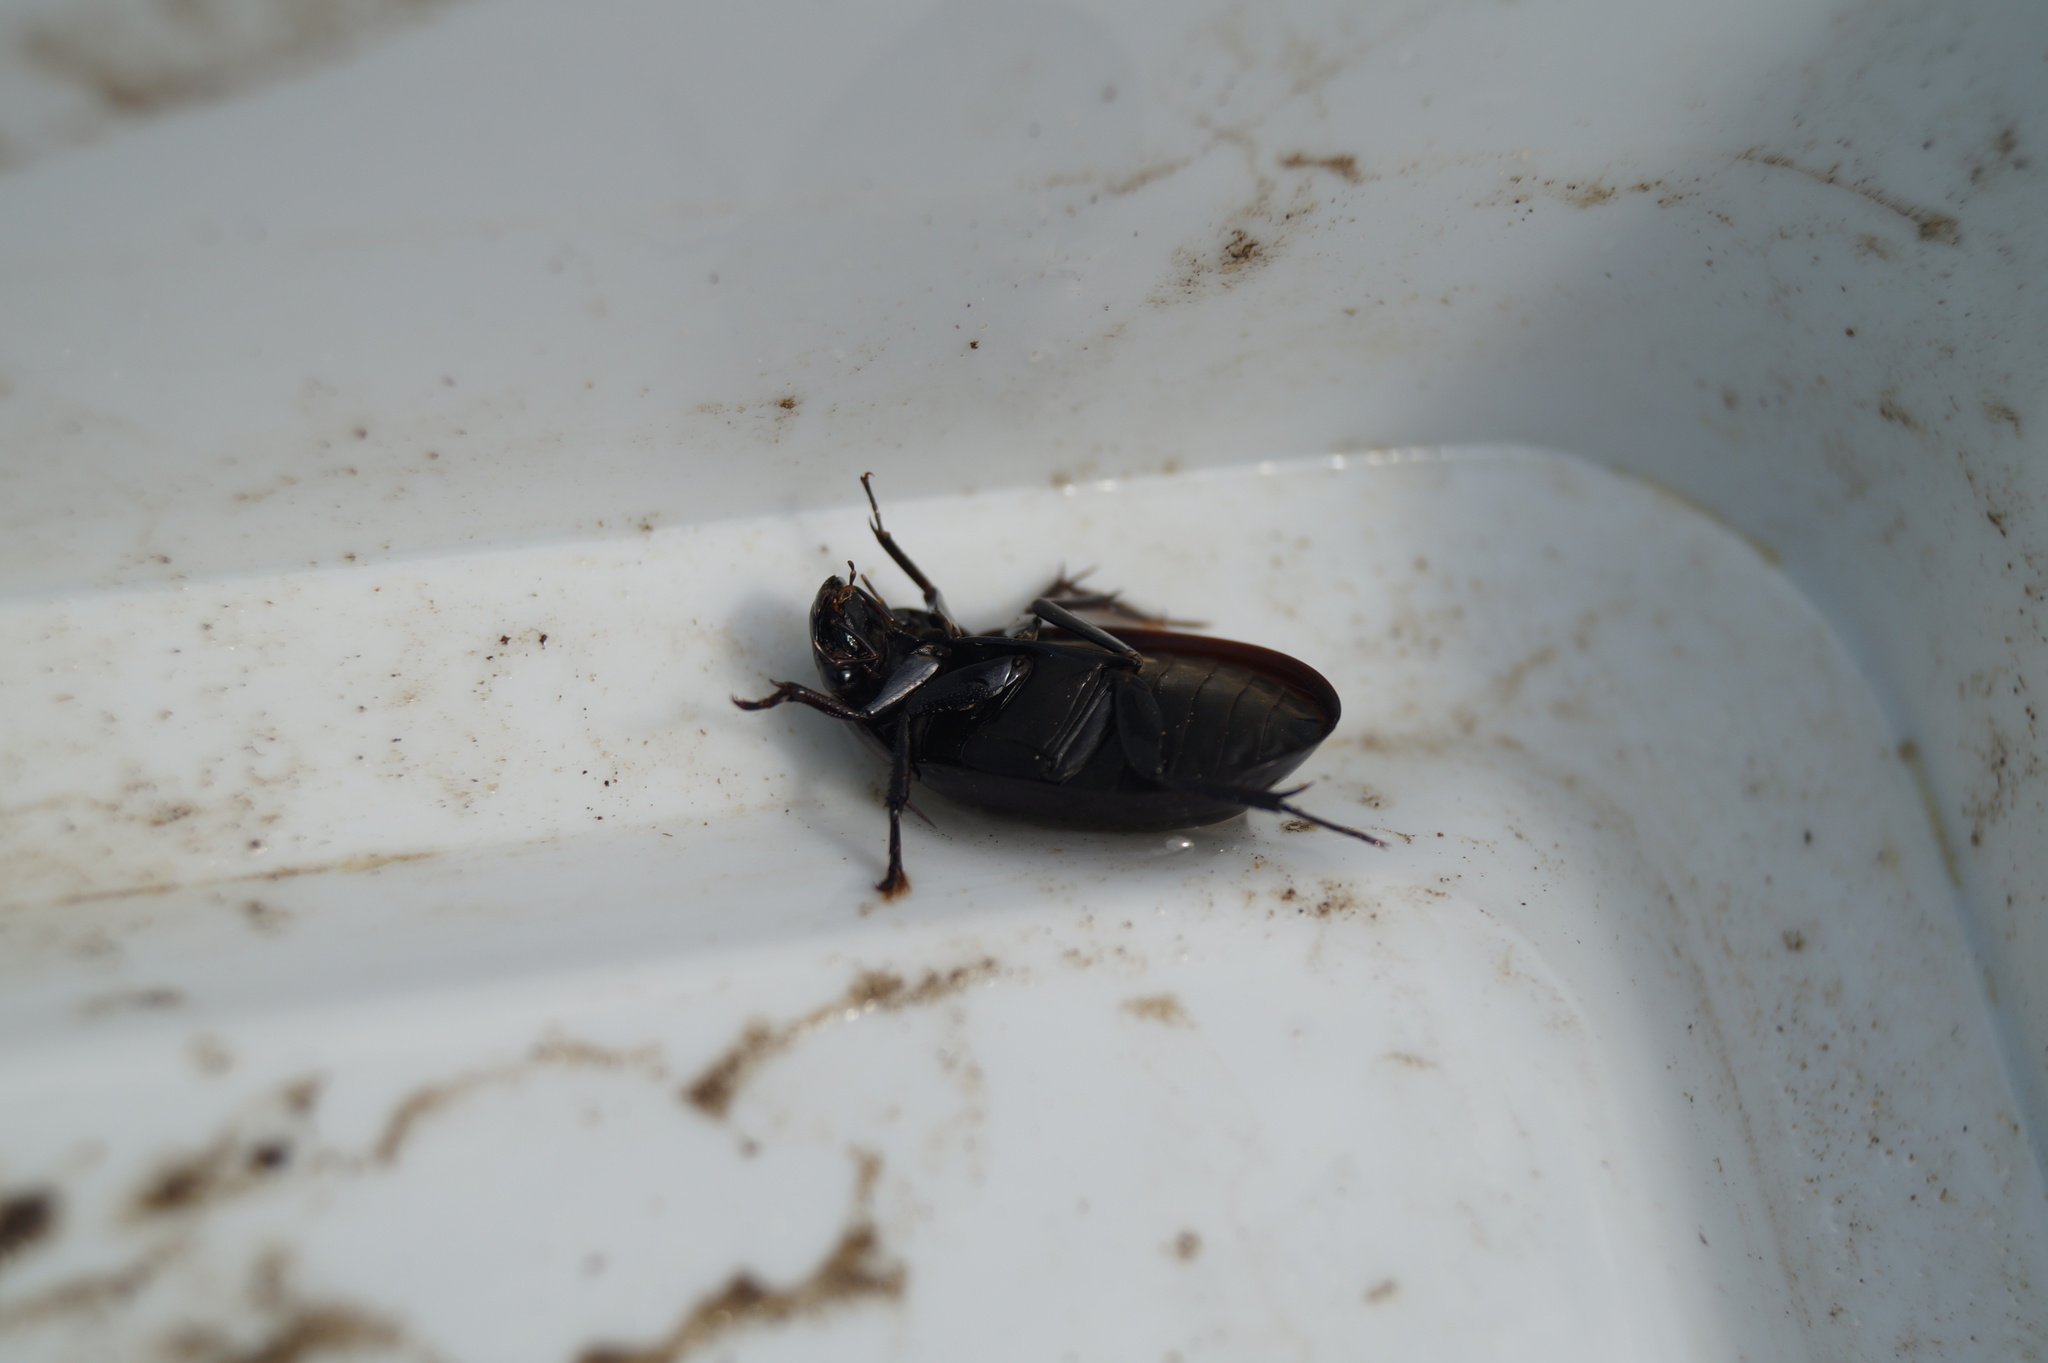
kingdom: Animalia
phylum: Arthropoda
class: Insecta
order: Coleoptera
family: Hydrophilidae
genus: Hydrochara
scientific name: Hydrochara caraboides
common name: Lesser silver water beetle
